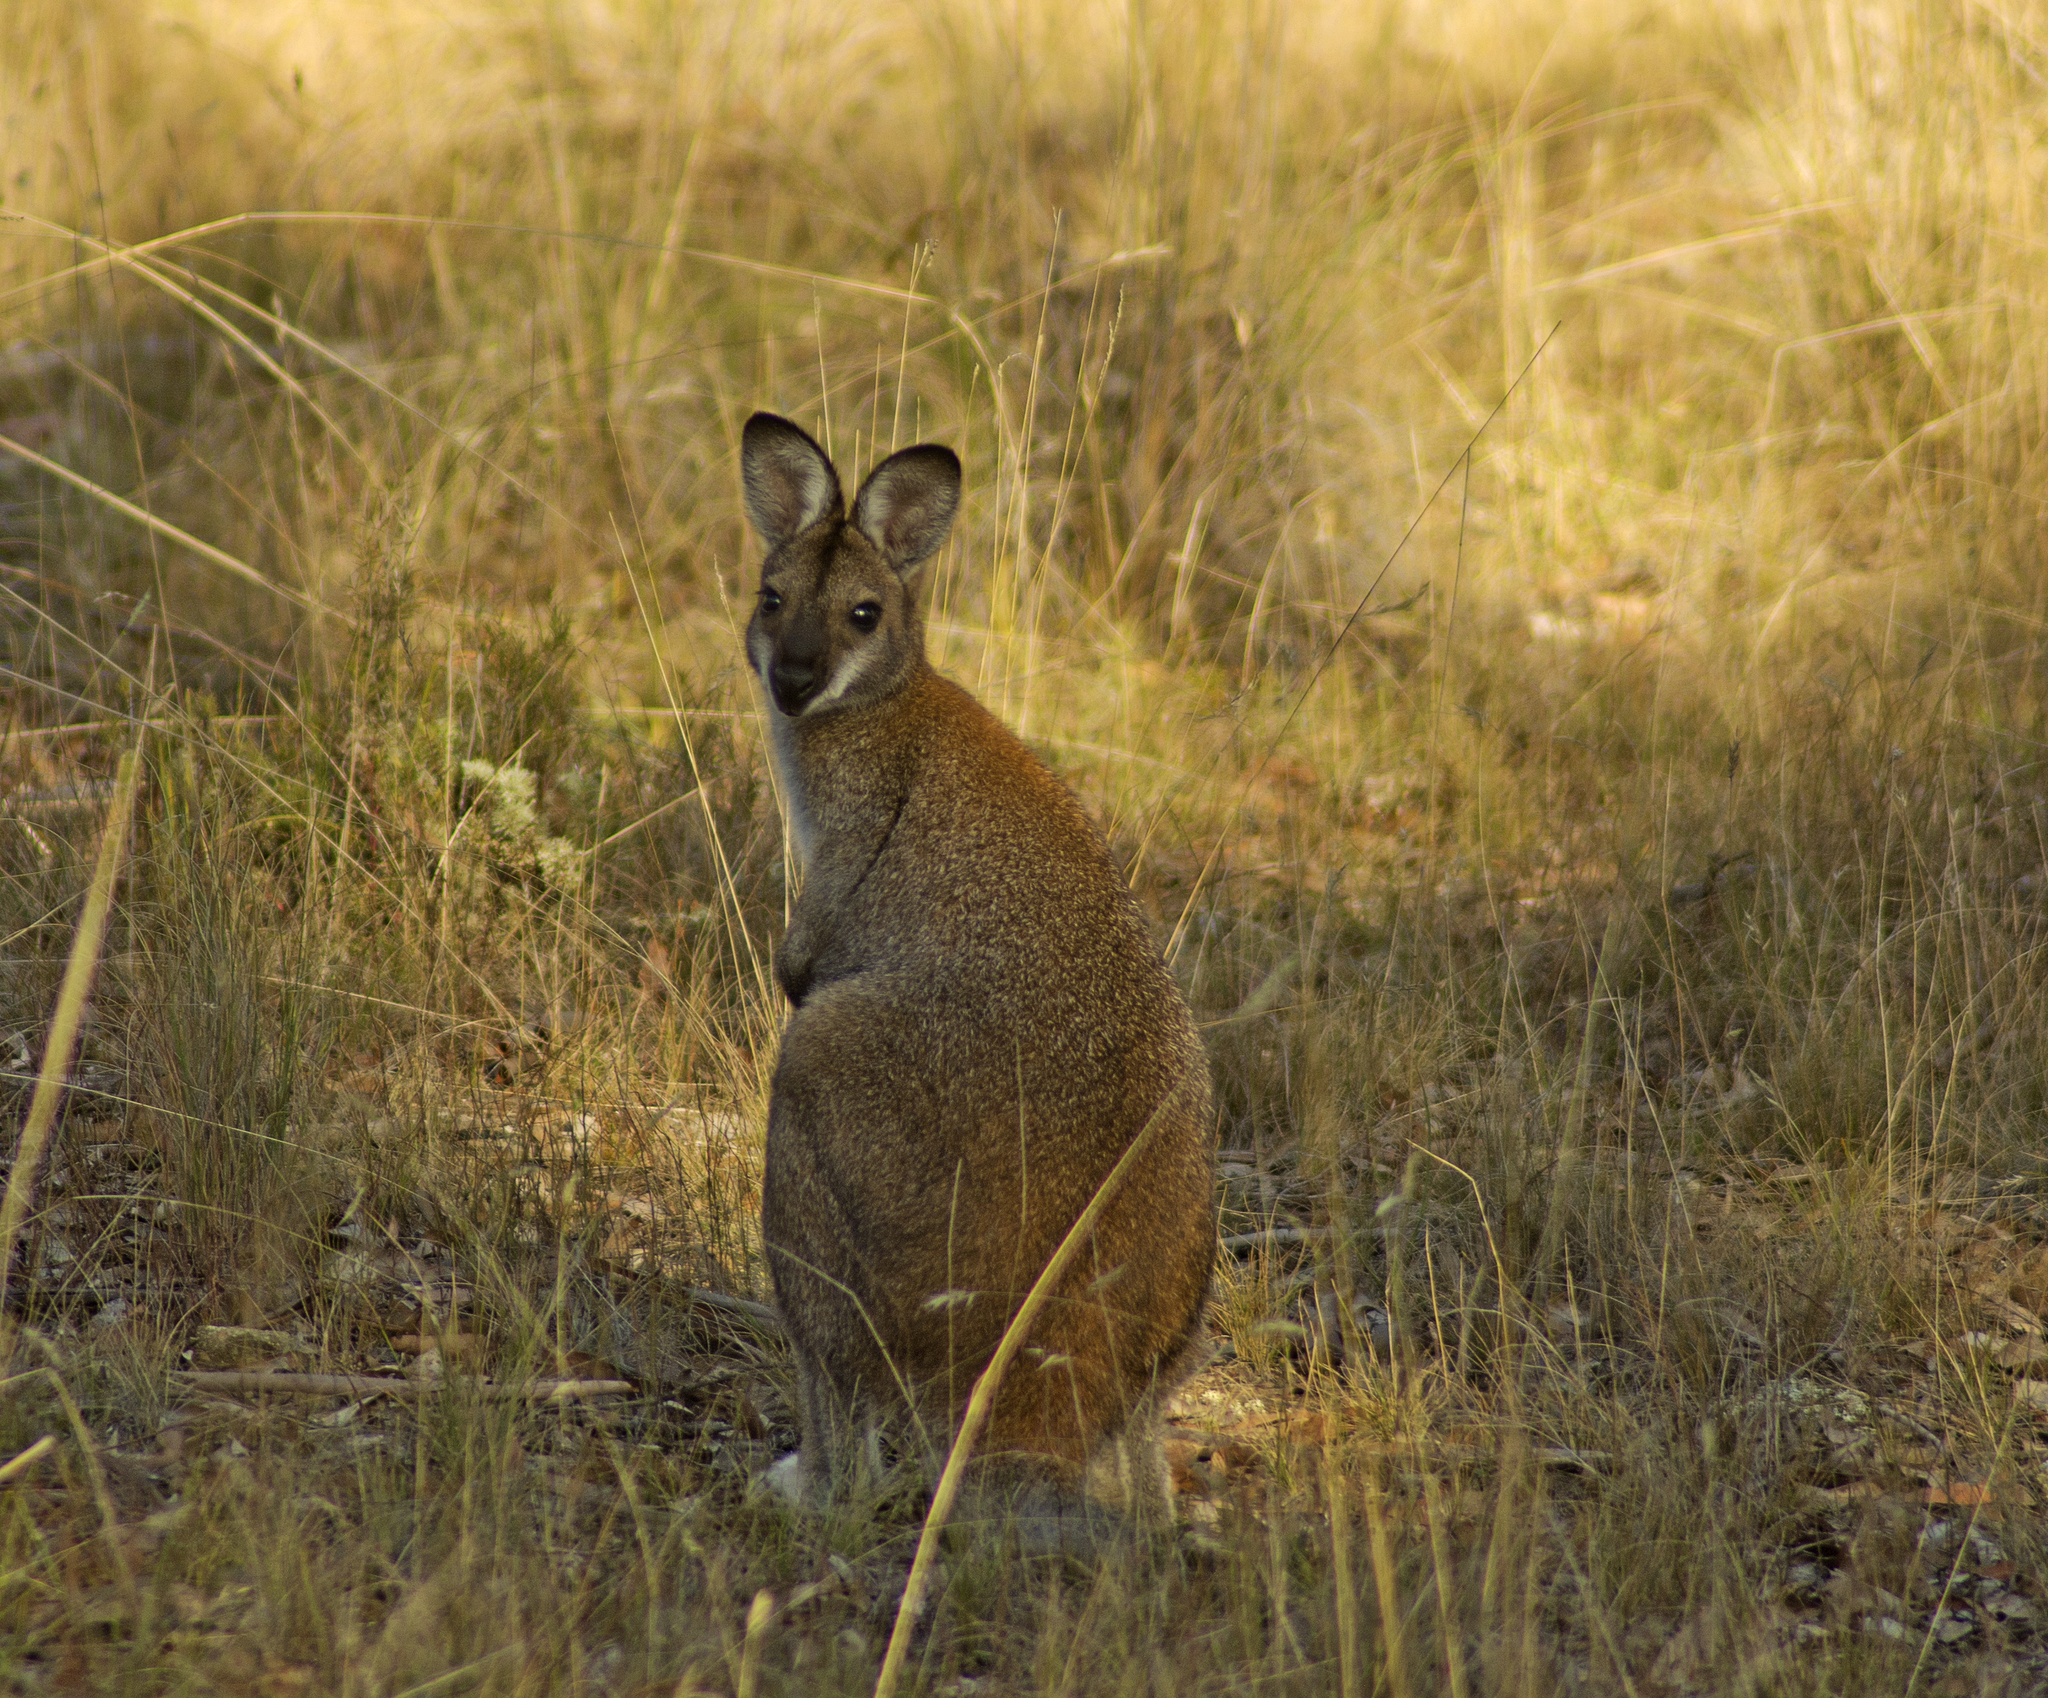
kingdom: Animalia
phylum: Chordata
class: Mammalia
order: Diprotodontia
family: Macropodidae
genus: Notamacropus
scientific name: Notamacropus rufogriseus
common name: Red-necked wallaby
